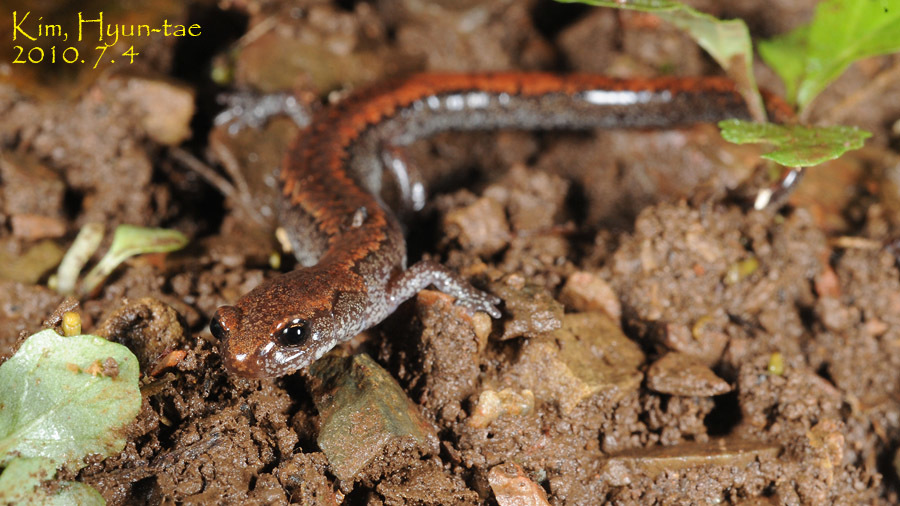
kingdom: Animalia
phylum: Chordata
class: Amphibia
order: Caudata
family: Plethodontidae
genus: Karsenia
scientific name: Karsenia koreana
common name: Korean crevice salamander
